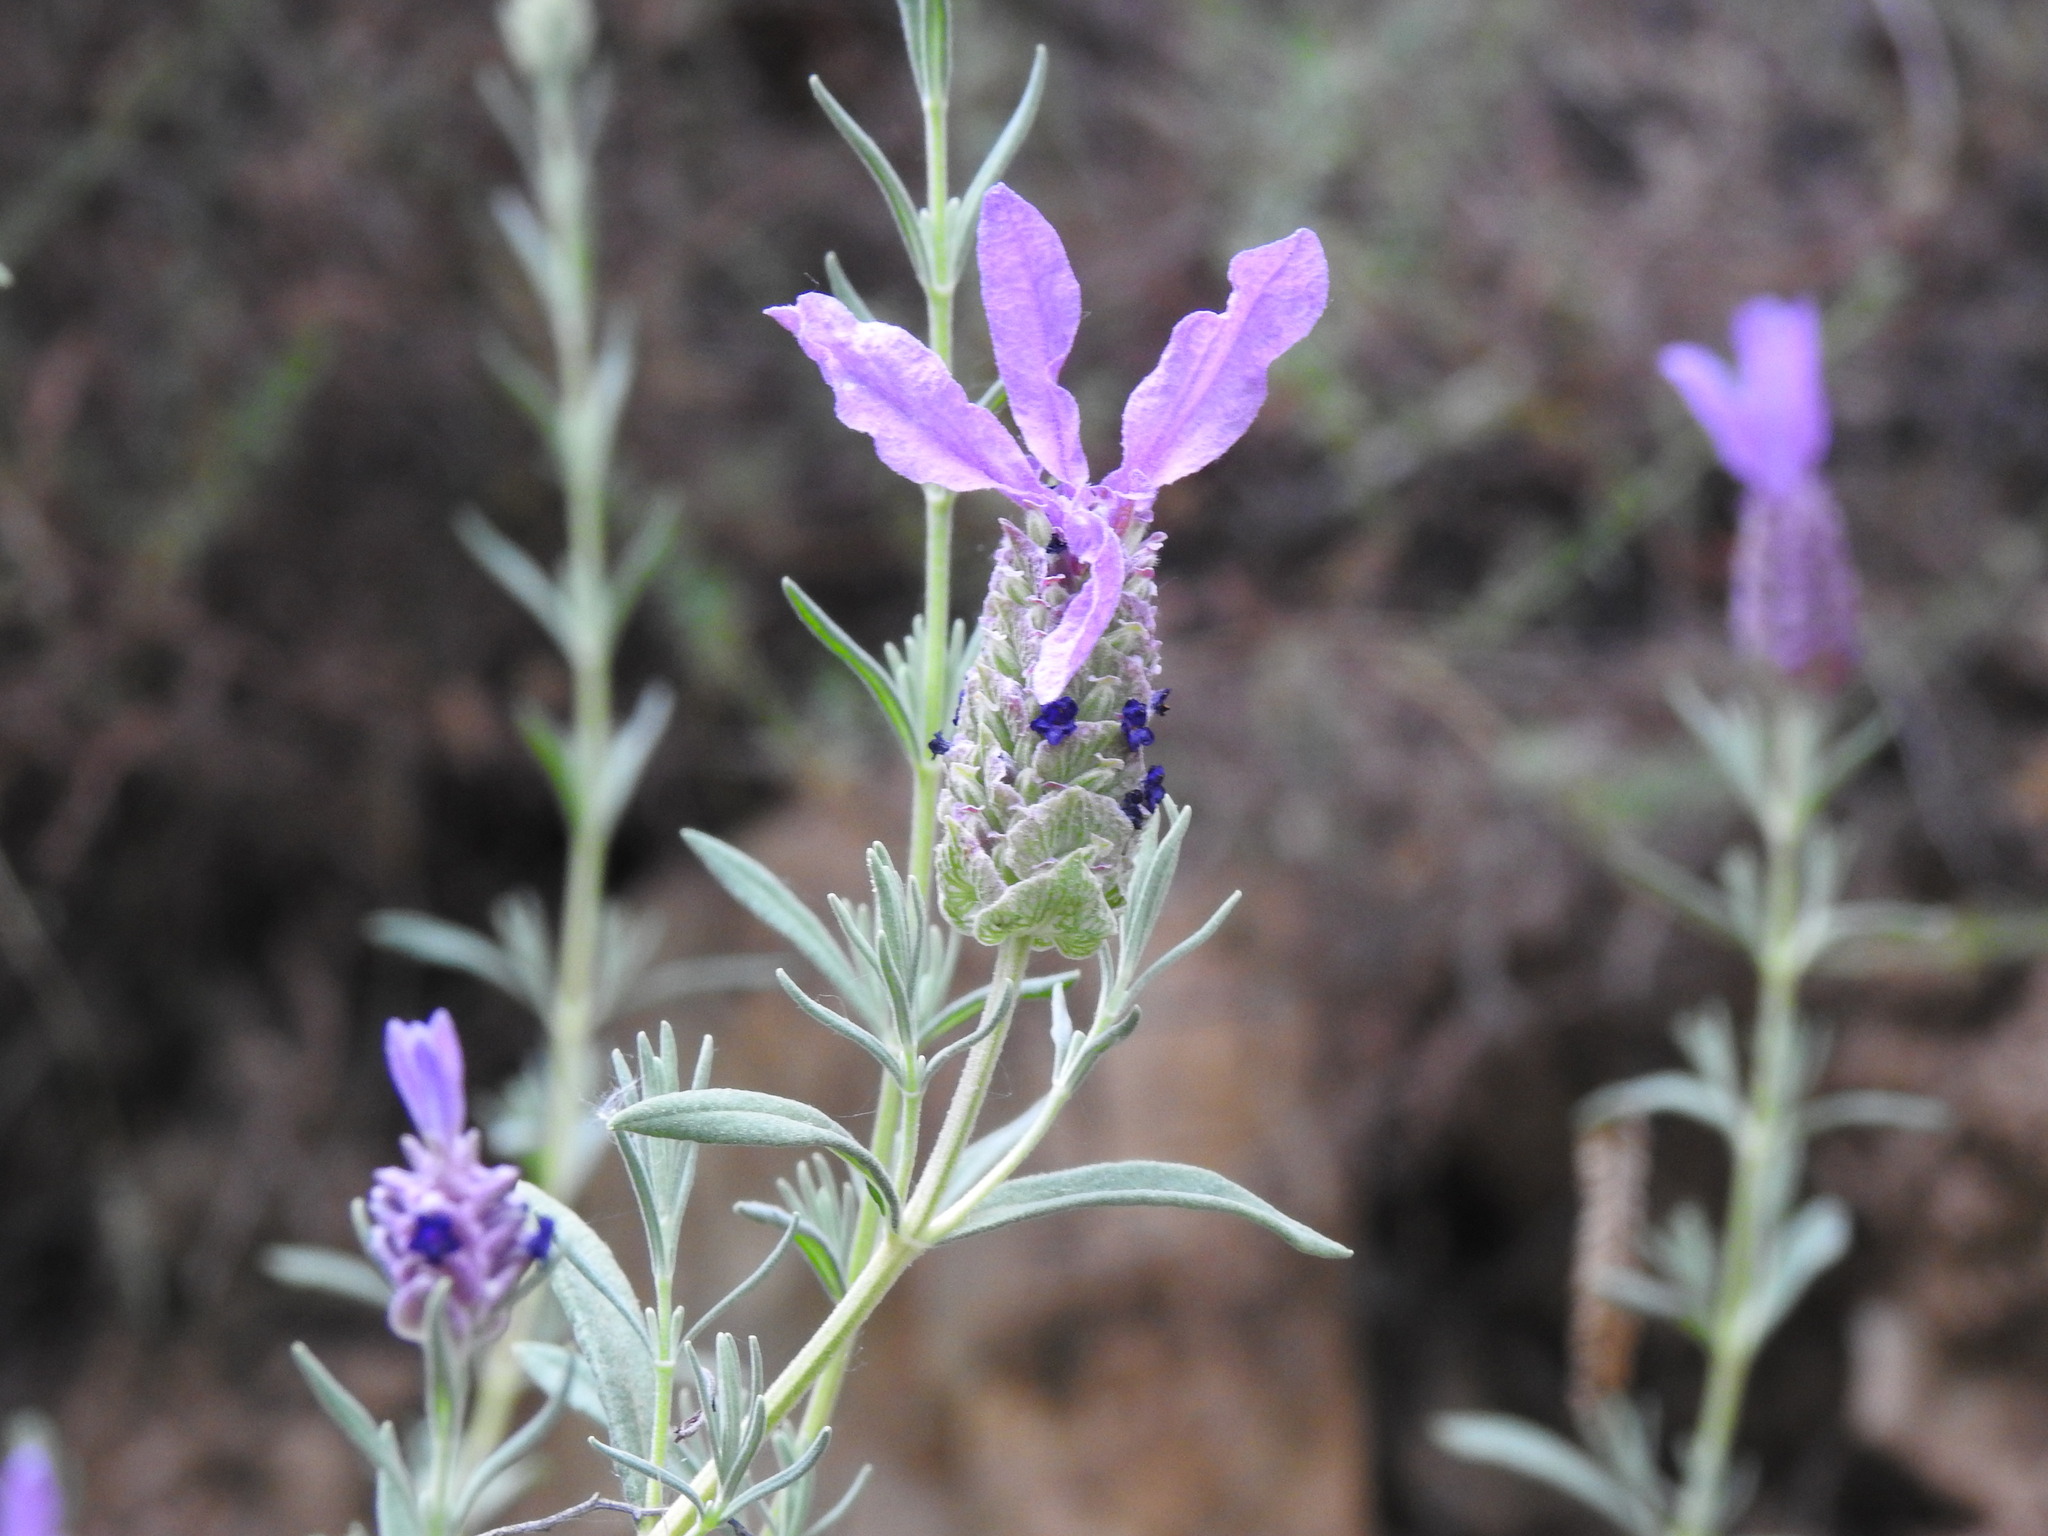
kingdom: Plantae
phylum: Tracheophyta
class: Magnoliopsida
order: Lamiales
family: Lamiaceae
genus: Lavandula
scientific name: Lavandula stoechas
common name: French lavender
